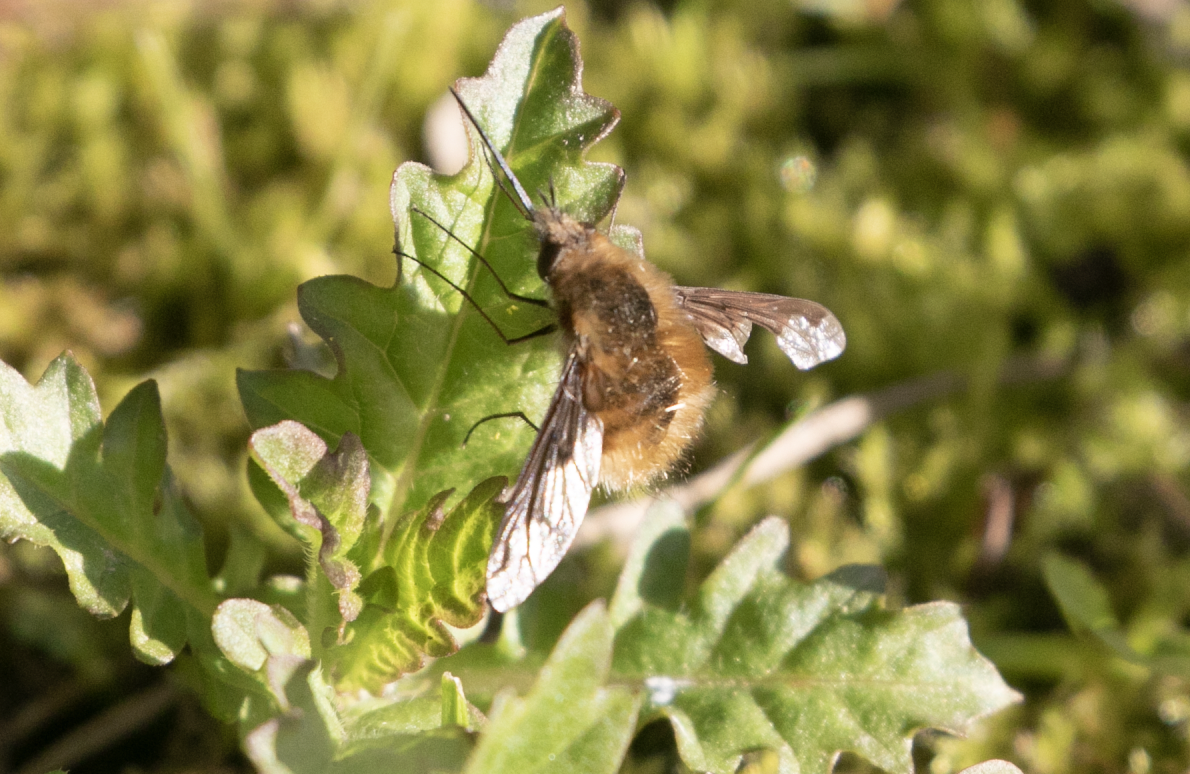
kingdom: Animalia
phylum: Arthropoda
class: Insecta
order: Diptera
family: Bombyliidae
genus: Bombylius
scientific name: Bombylius major
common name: Bee fly
